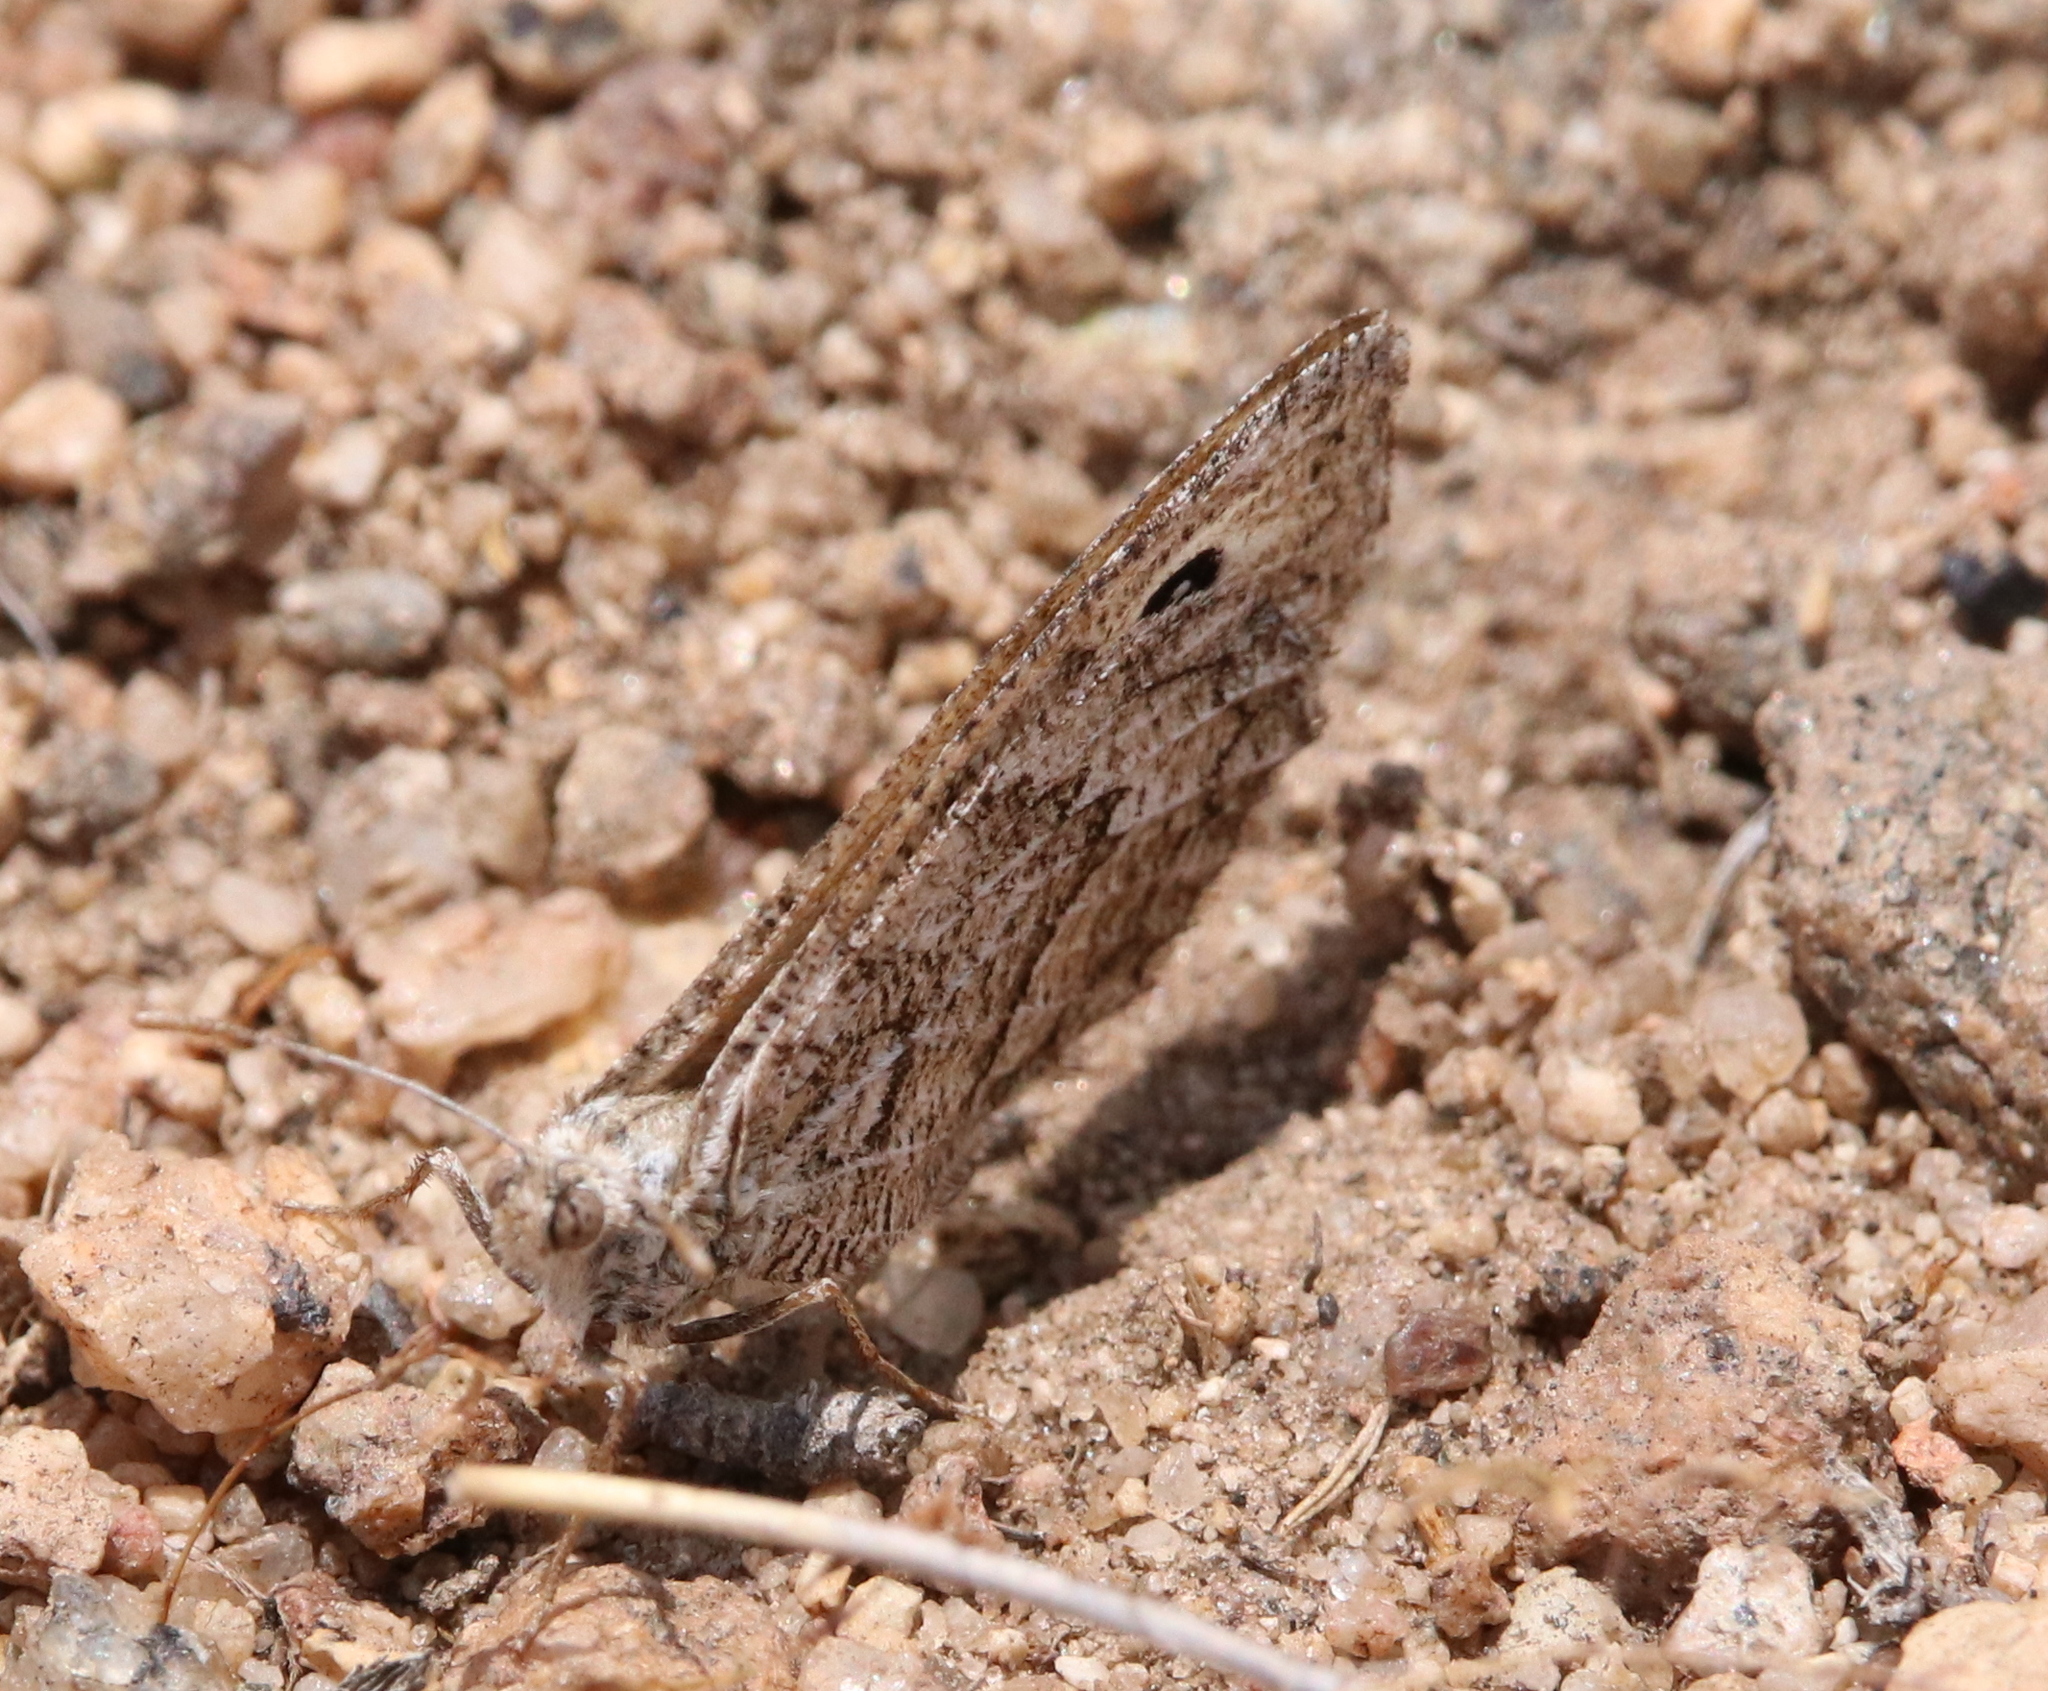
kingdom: Animalia
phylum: Arthropoda
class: Insecta
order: Lepidoptera
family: Nymphalidae
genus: Neominois
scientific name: Neominois ridingsii
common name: Ridings' satyr
